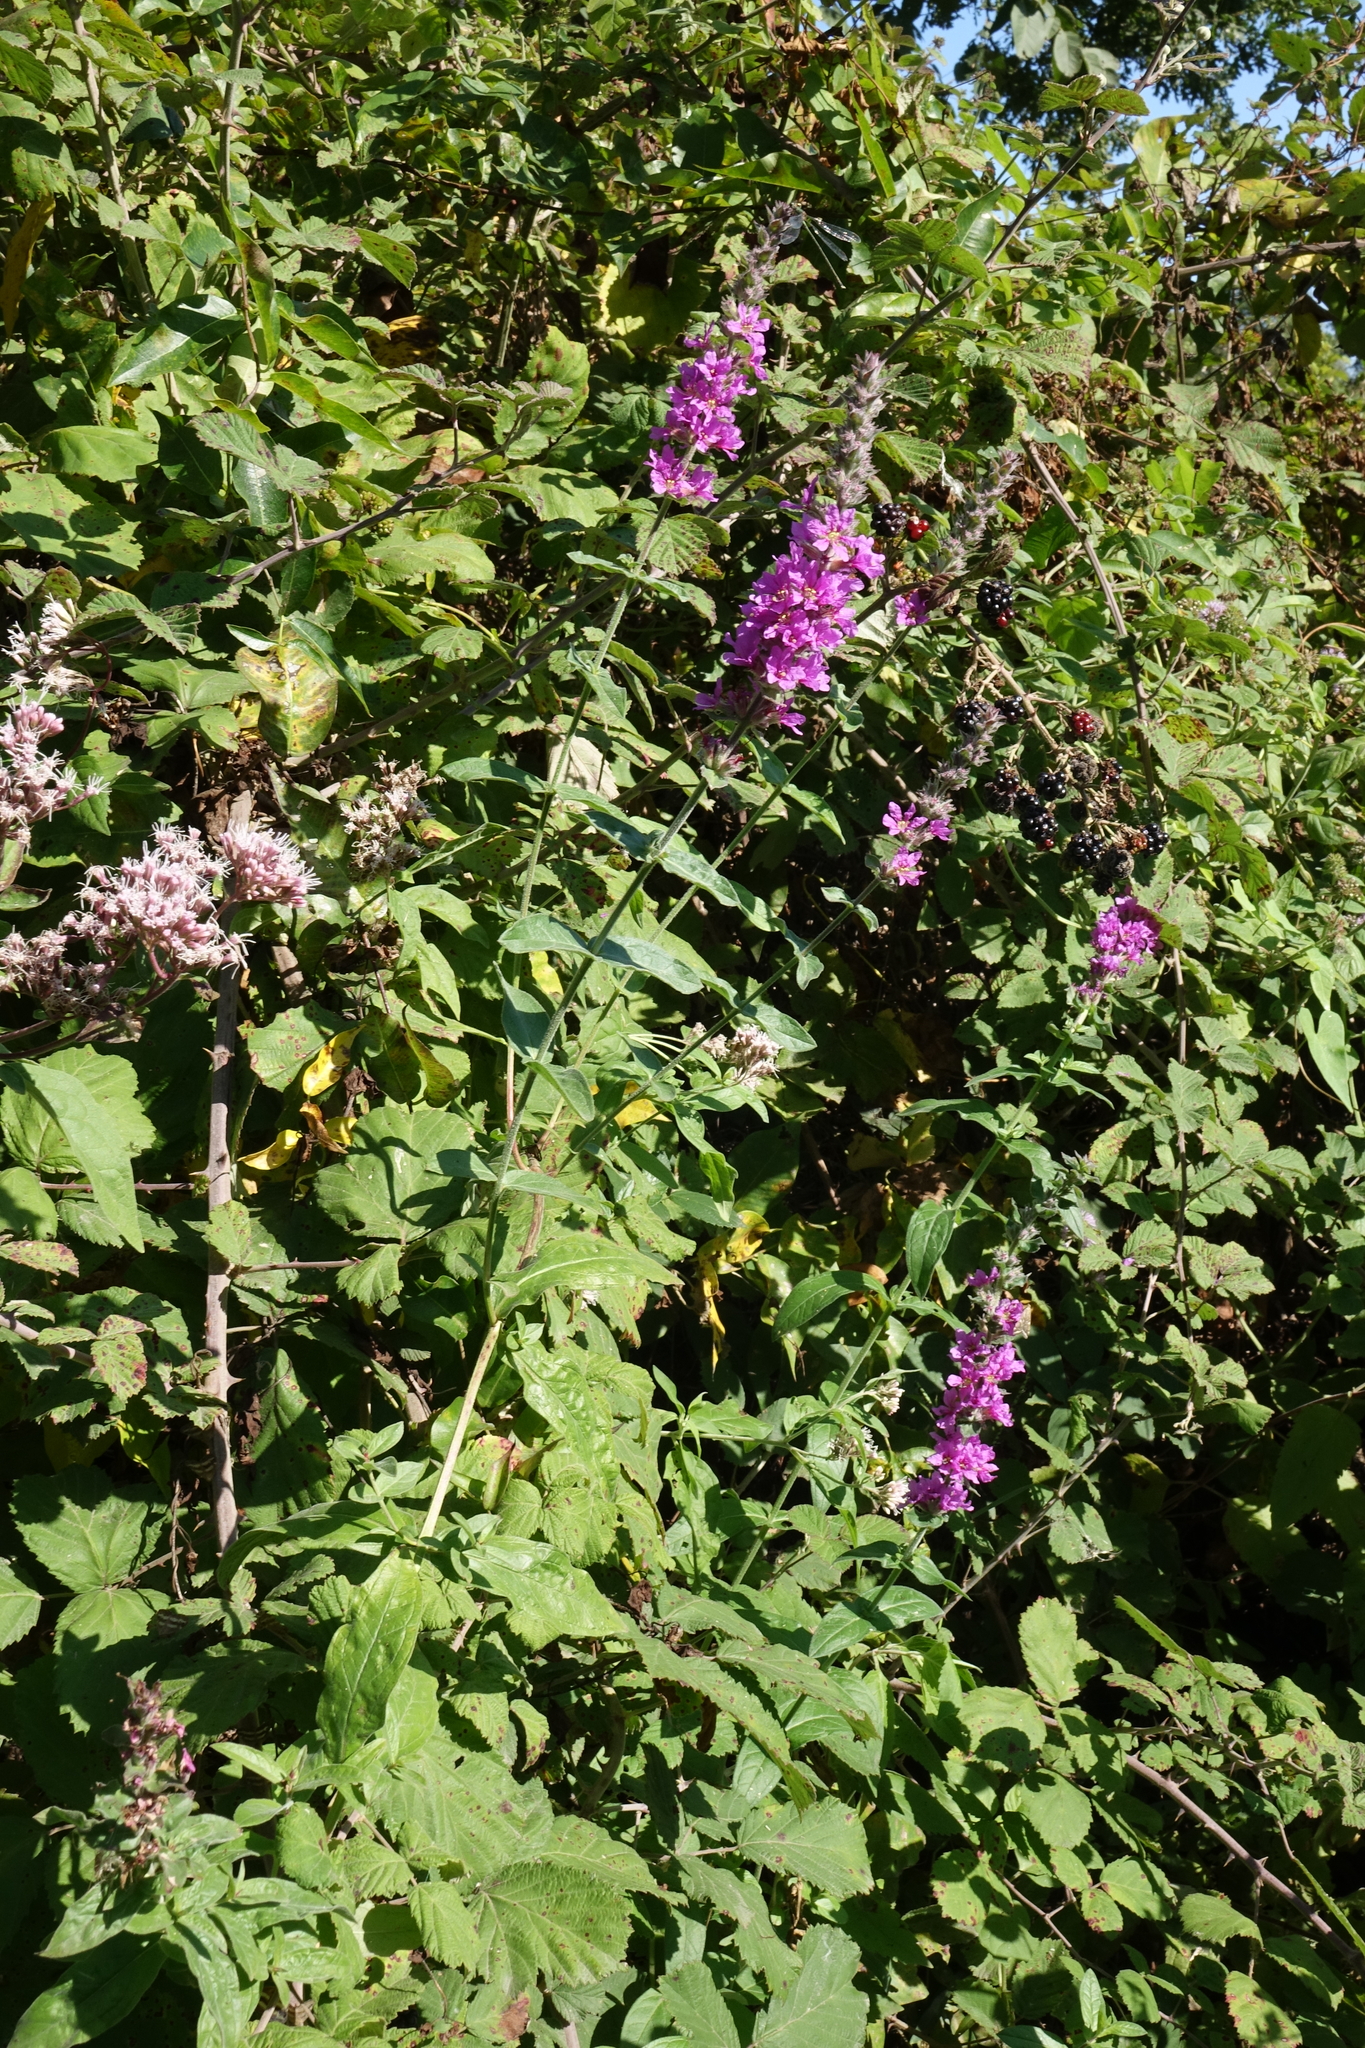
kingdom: Plantae
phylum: Tracheophyta
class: Magnoliopsida
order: Myrtales
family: Lythraceae
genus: Lythrum
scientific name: Lythrum salicaria
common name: Purple loosestrife
